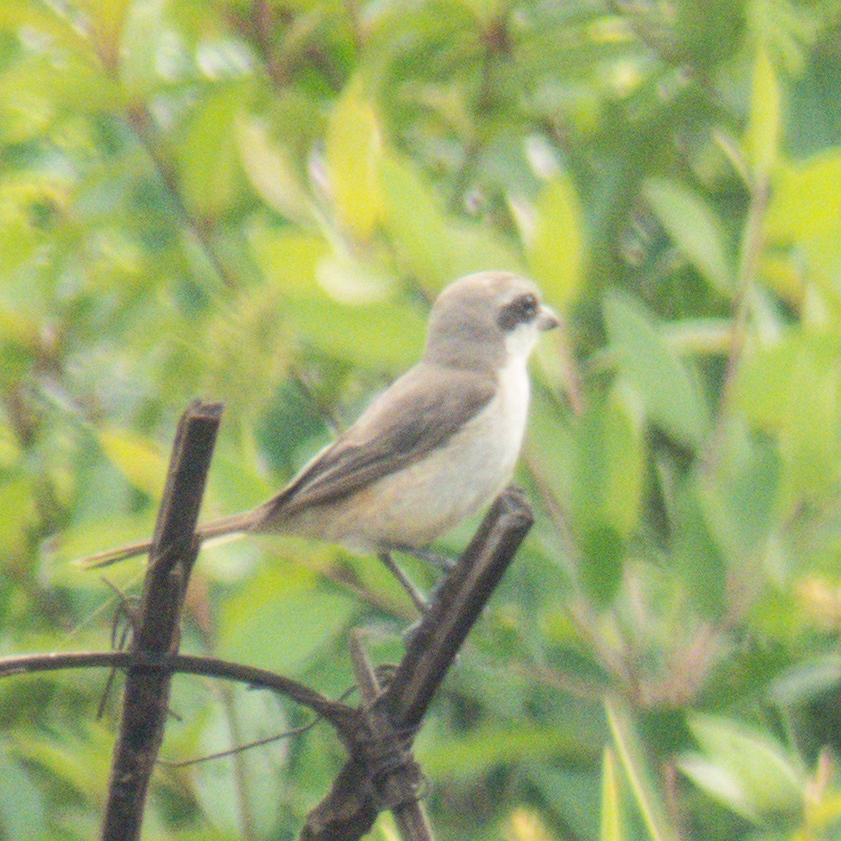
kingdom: Animalia
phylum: Chordata
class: Aves
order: Passeriformes
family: Laniidae
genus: Lanius
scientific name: Lanius cristatus
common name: Brown shrike
